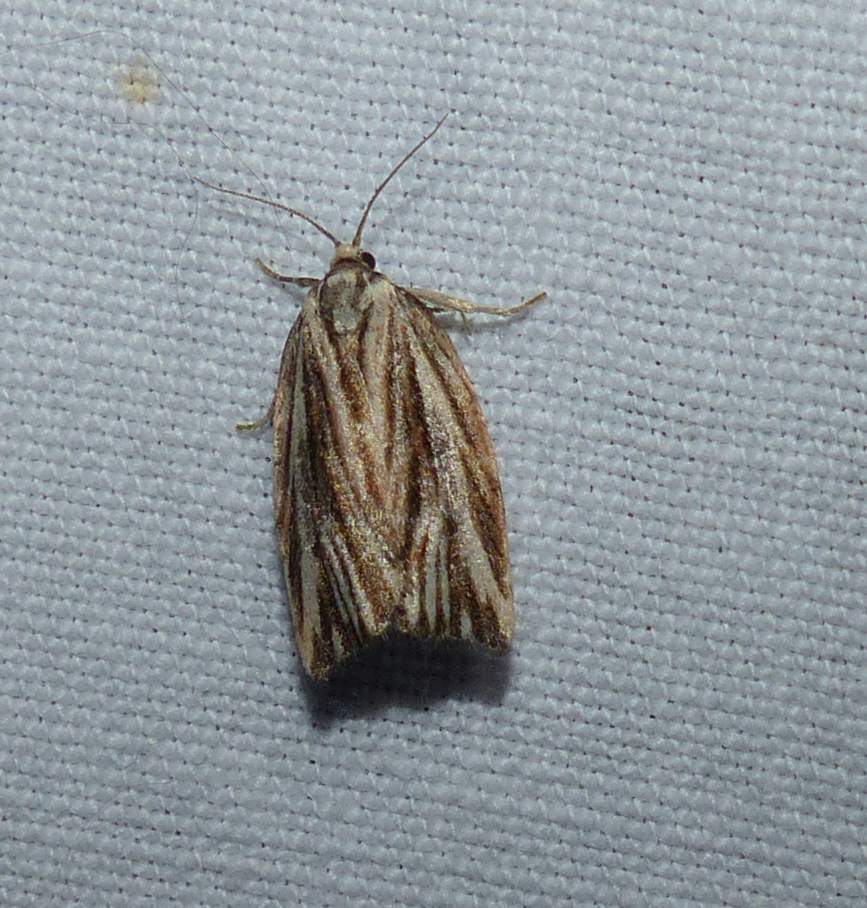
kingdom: Animalia
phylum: Arthropoda
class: Insecta
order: Lepidoptera
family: Tortricidae
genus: Archips
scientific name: Archips strianus
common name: Striated tortrix moth
